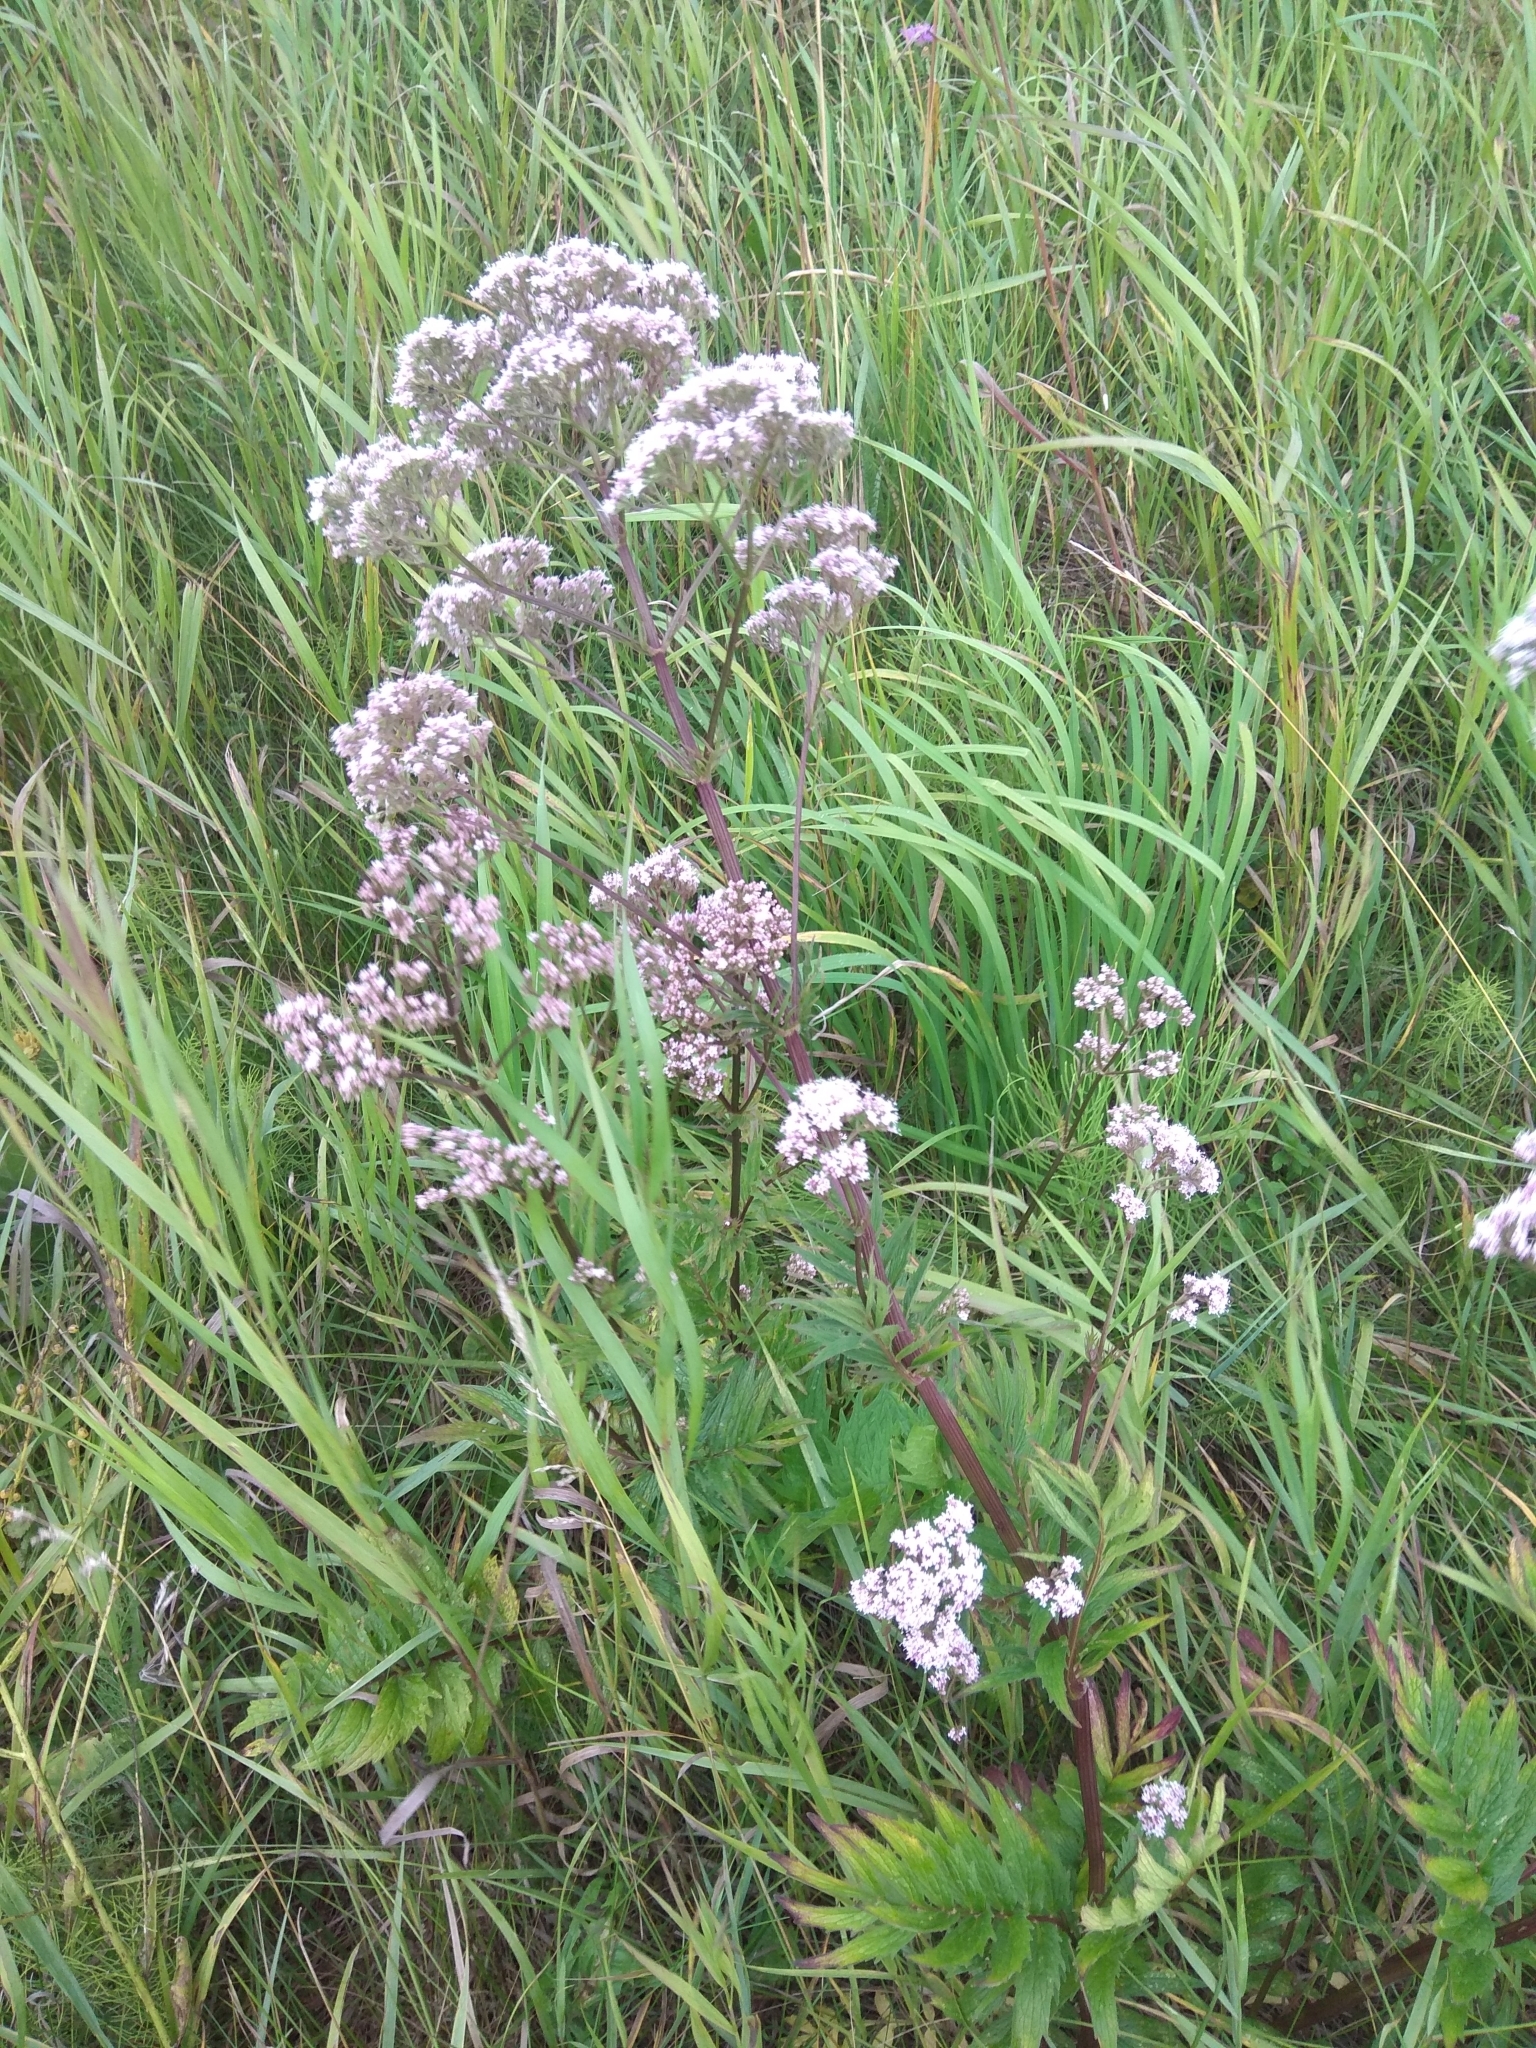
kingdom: Plantae
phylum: Tracheophyta
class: Magnoliopsida
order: Dipsacales
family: Caprifoliaceae
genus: Valeriana
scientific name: Valeriana officinalis
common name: Common valerian
